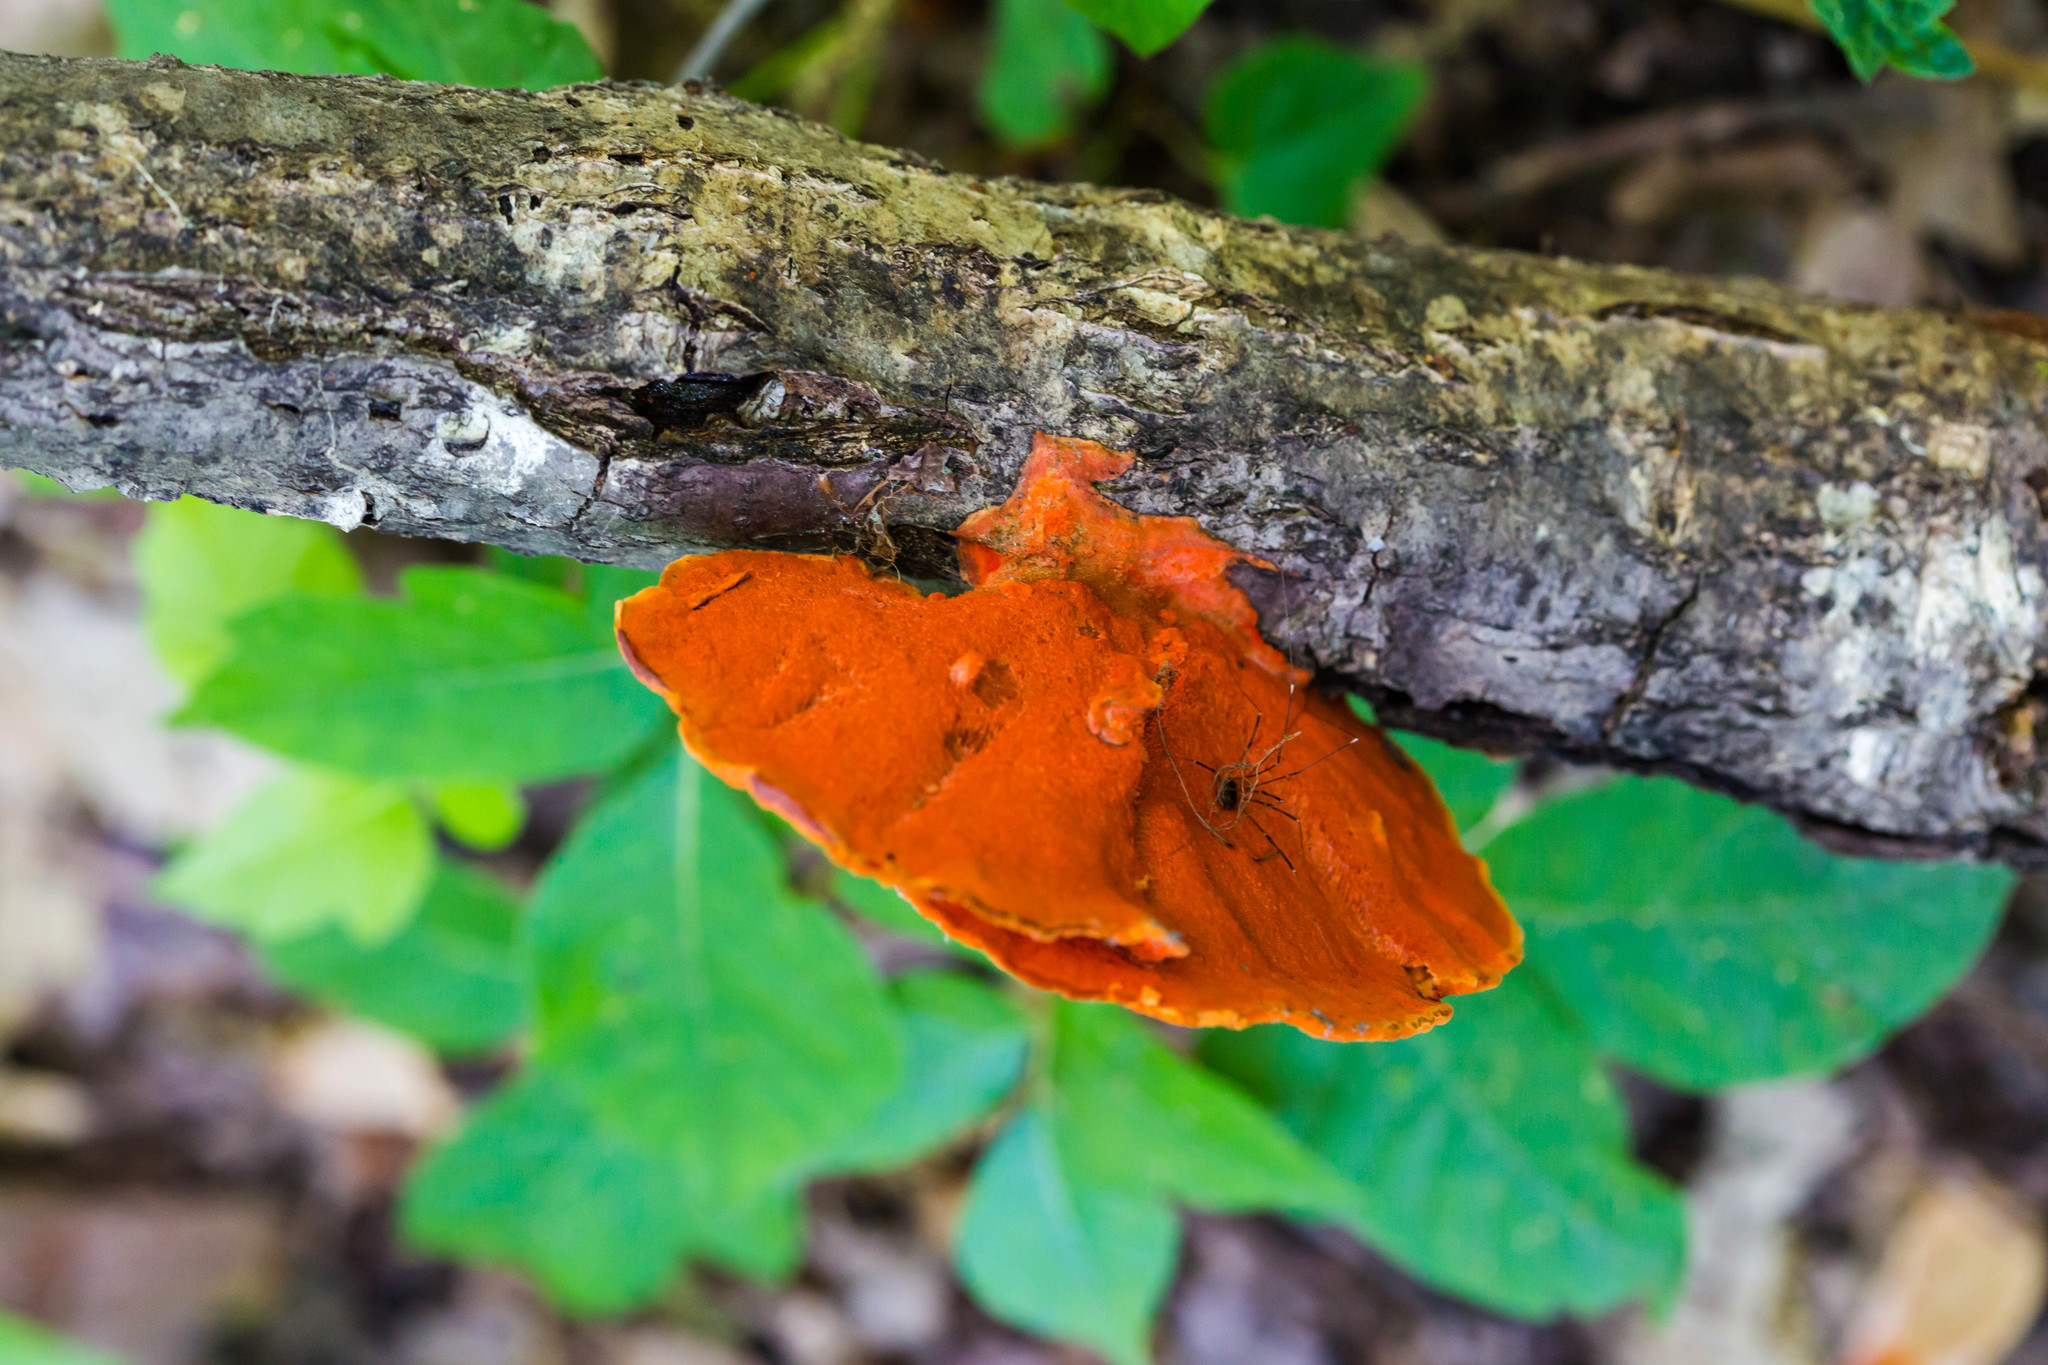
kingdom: Fungi
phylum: Basidiomycota
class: Agaricomycetes
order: Polyporales
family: Polyporaceae
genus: Trametes
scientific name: Trametes cinnabarina
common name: Northern cinnabar polypore
